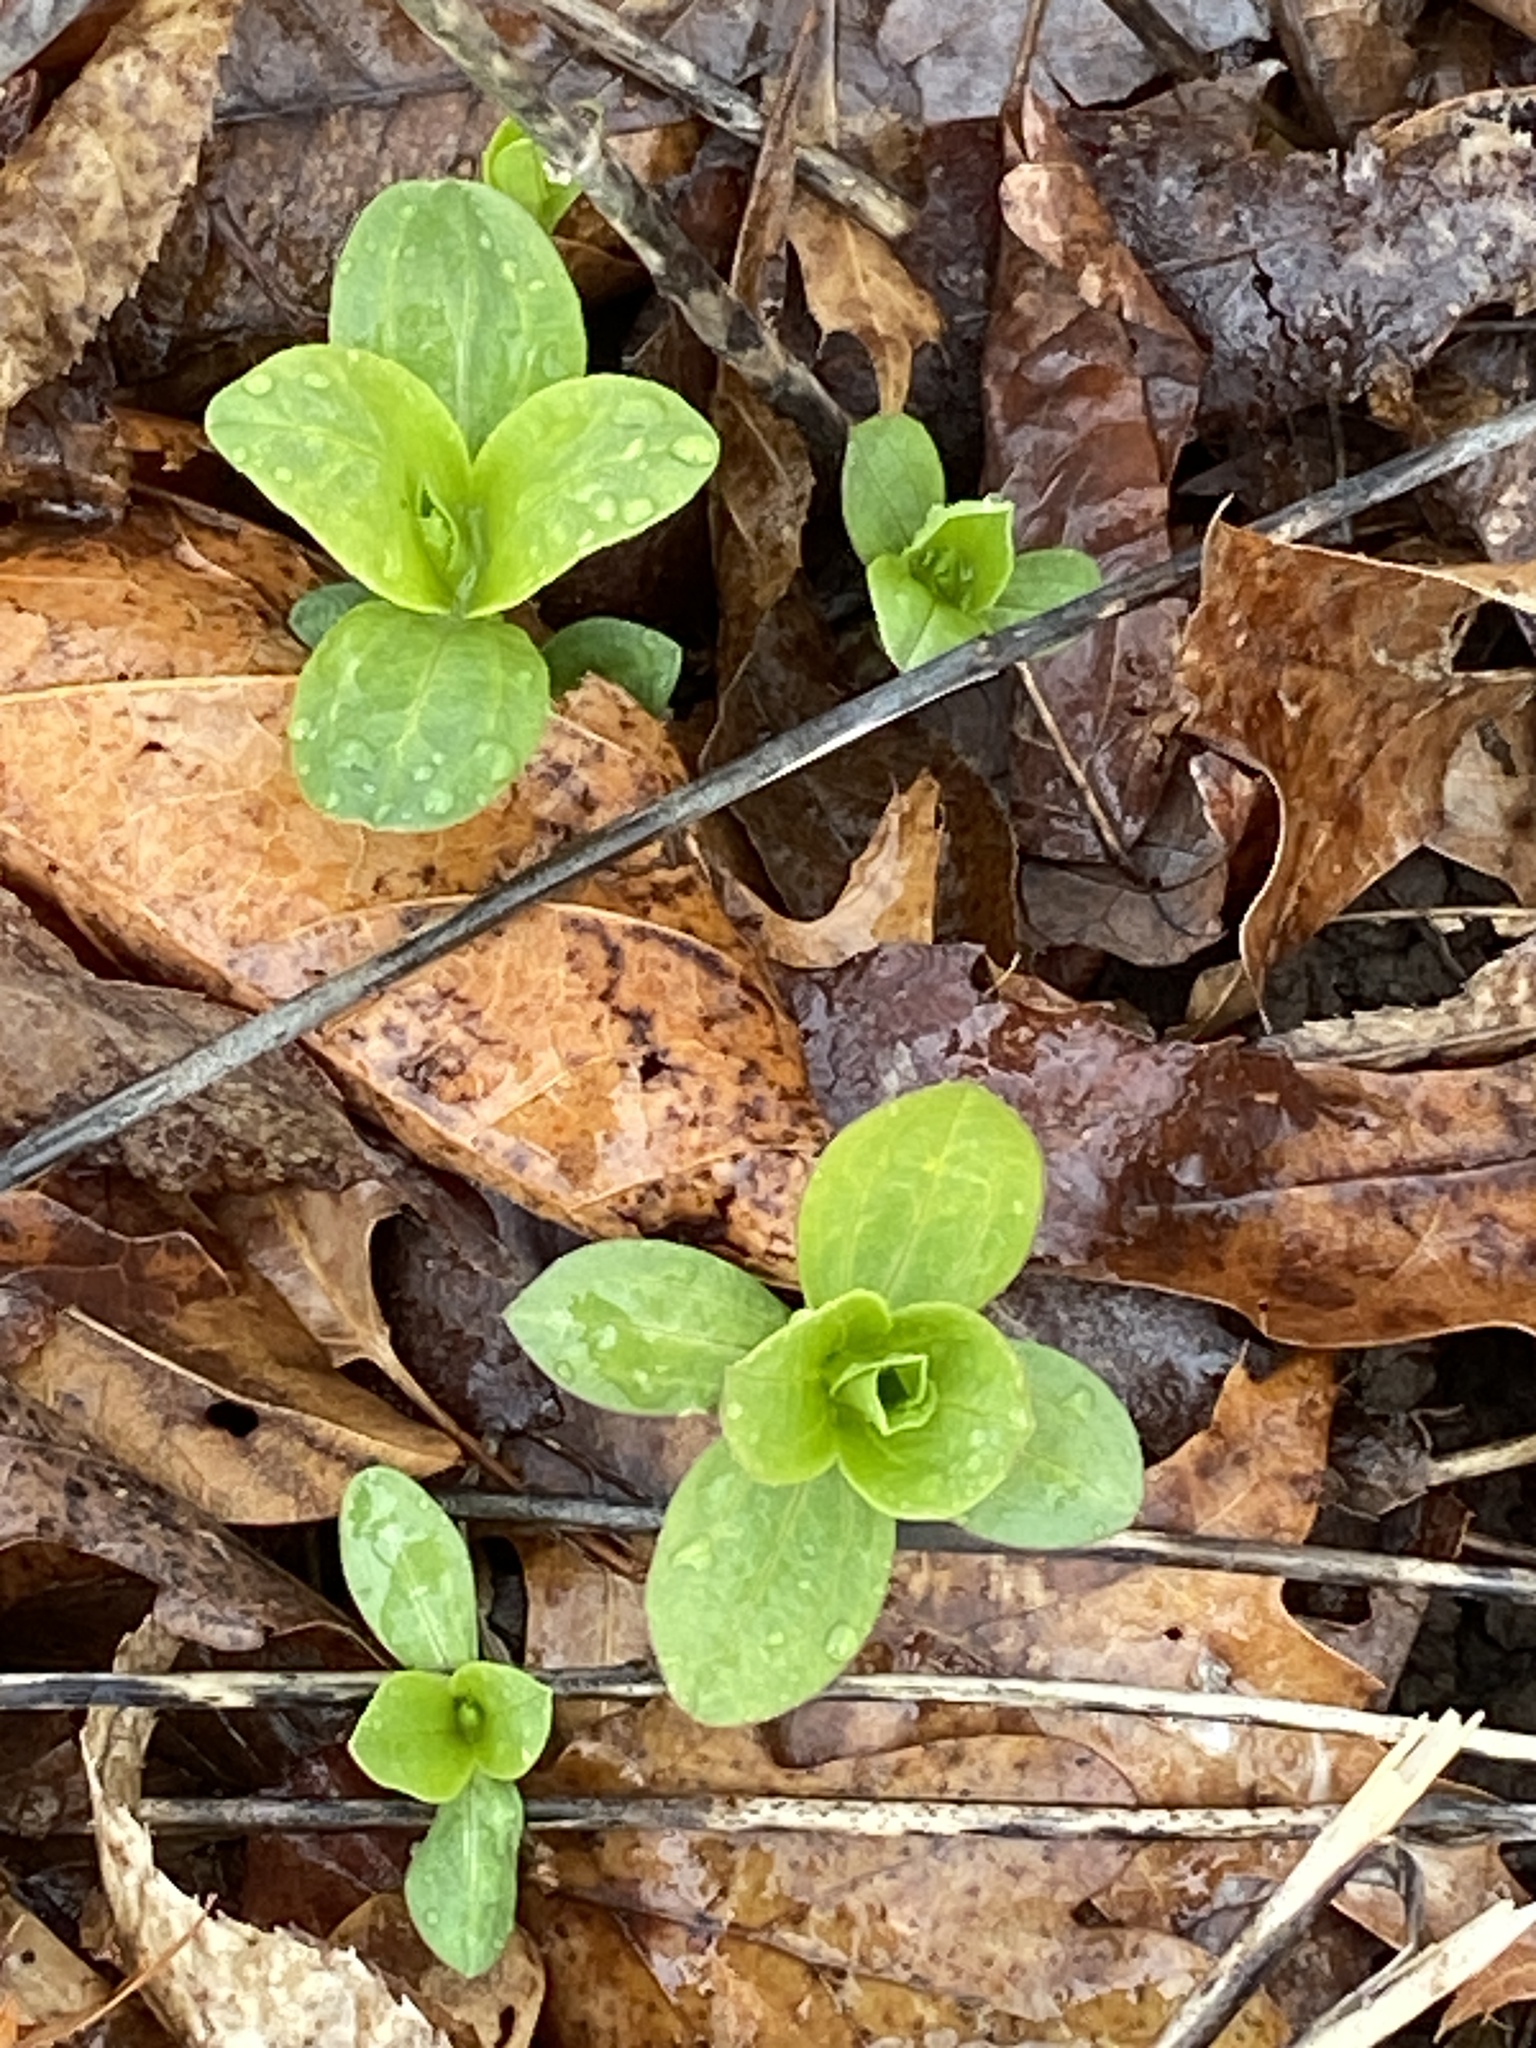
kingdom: Plantae
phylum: Tracheophyta
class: Magnoliopsida
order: Caryophyllales
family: Caryophyllaceae
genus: Saponaria
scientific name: Saponaria officinalis
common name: Soapwort
